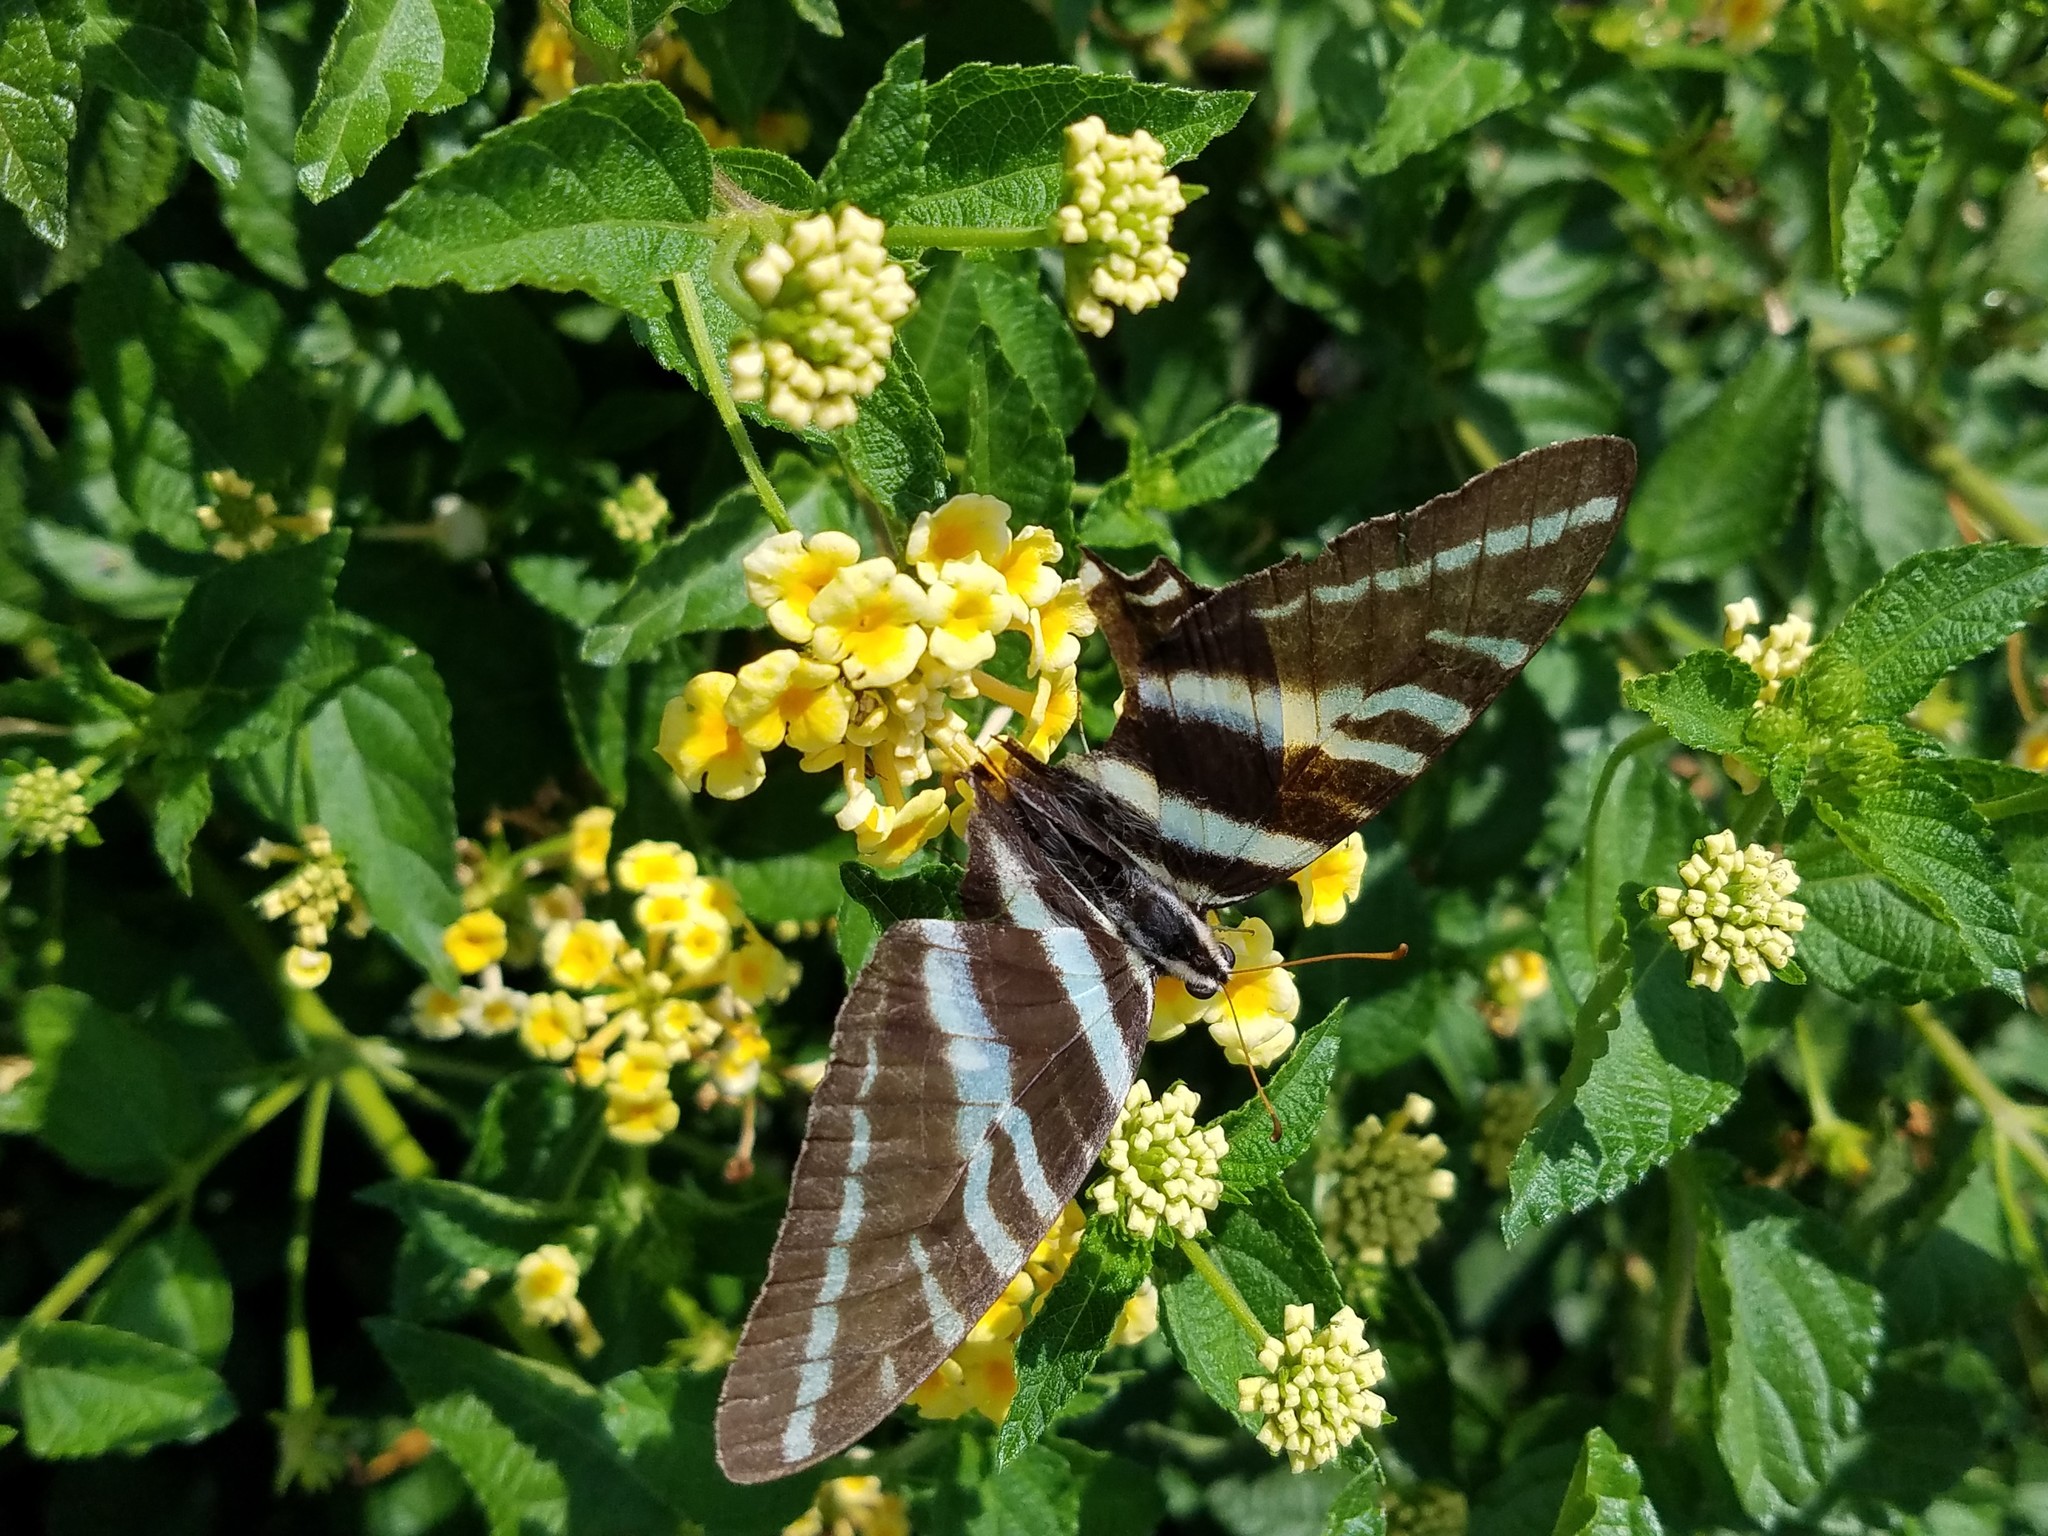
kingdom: Animalia
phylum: Arthropoda
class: Insecta
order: Lepidoptera
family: Papilionidae
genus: Protographium
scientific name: Protographium marcellus
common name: Zebra swallowtail
